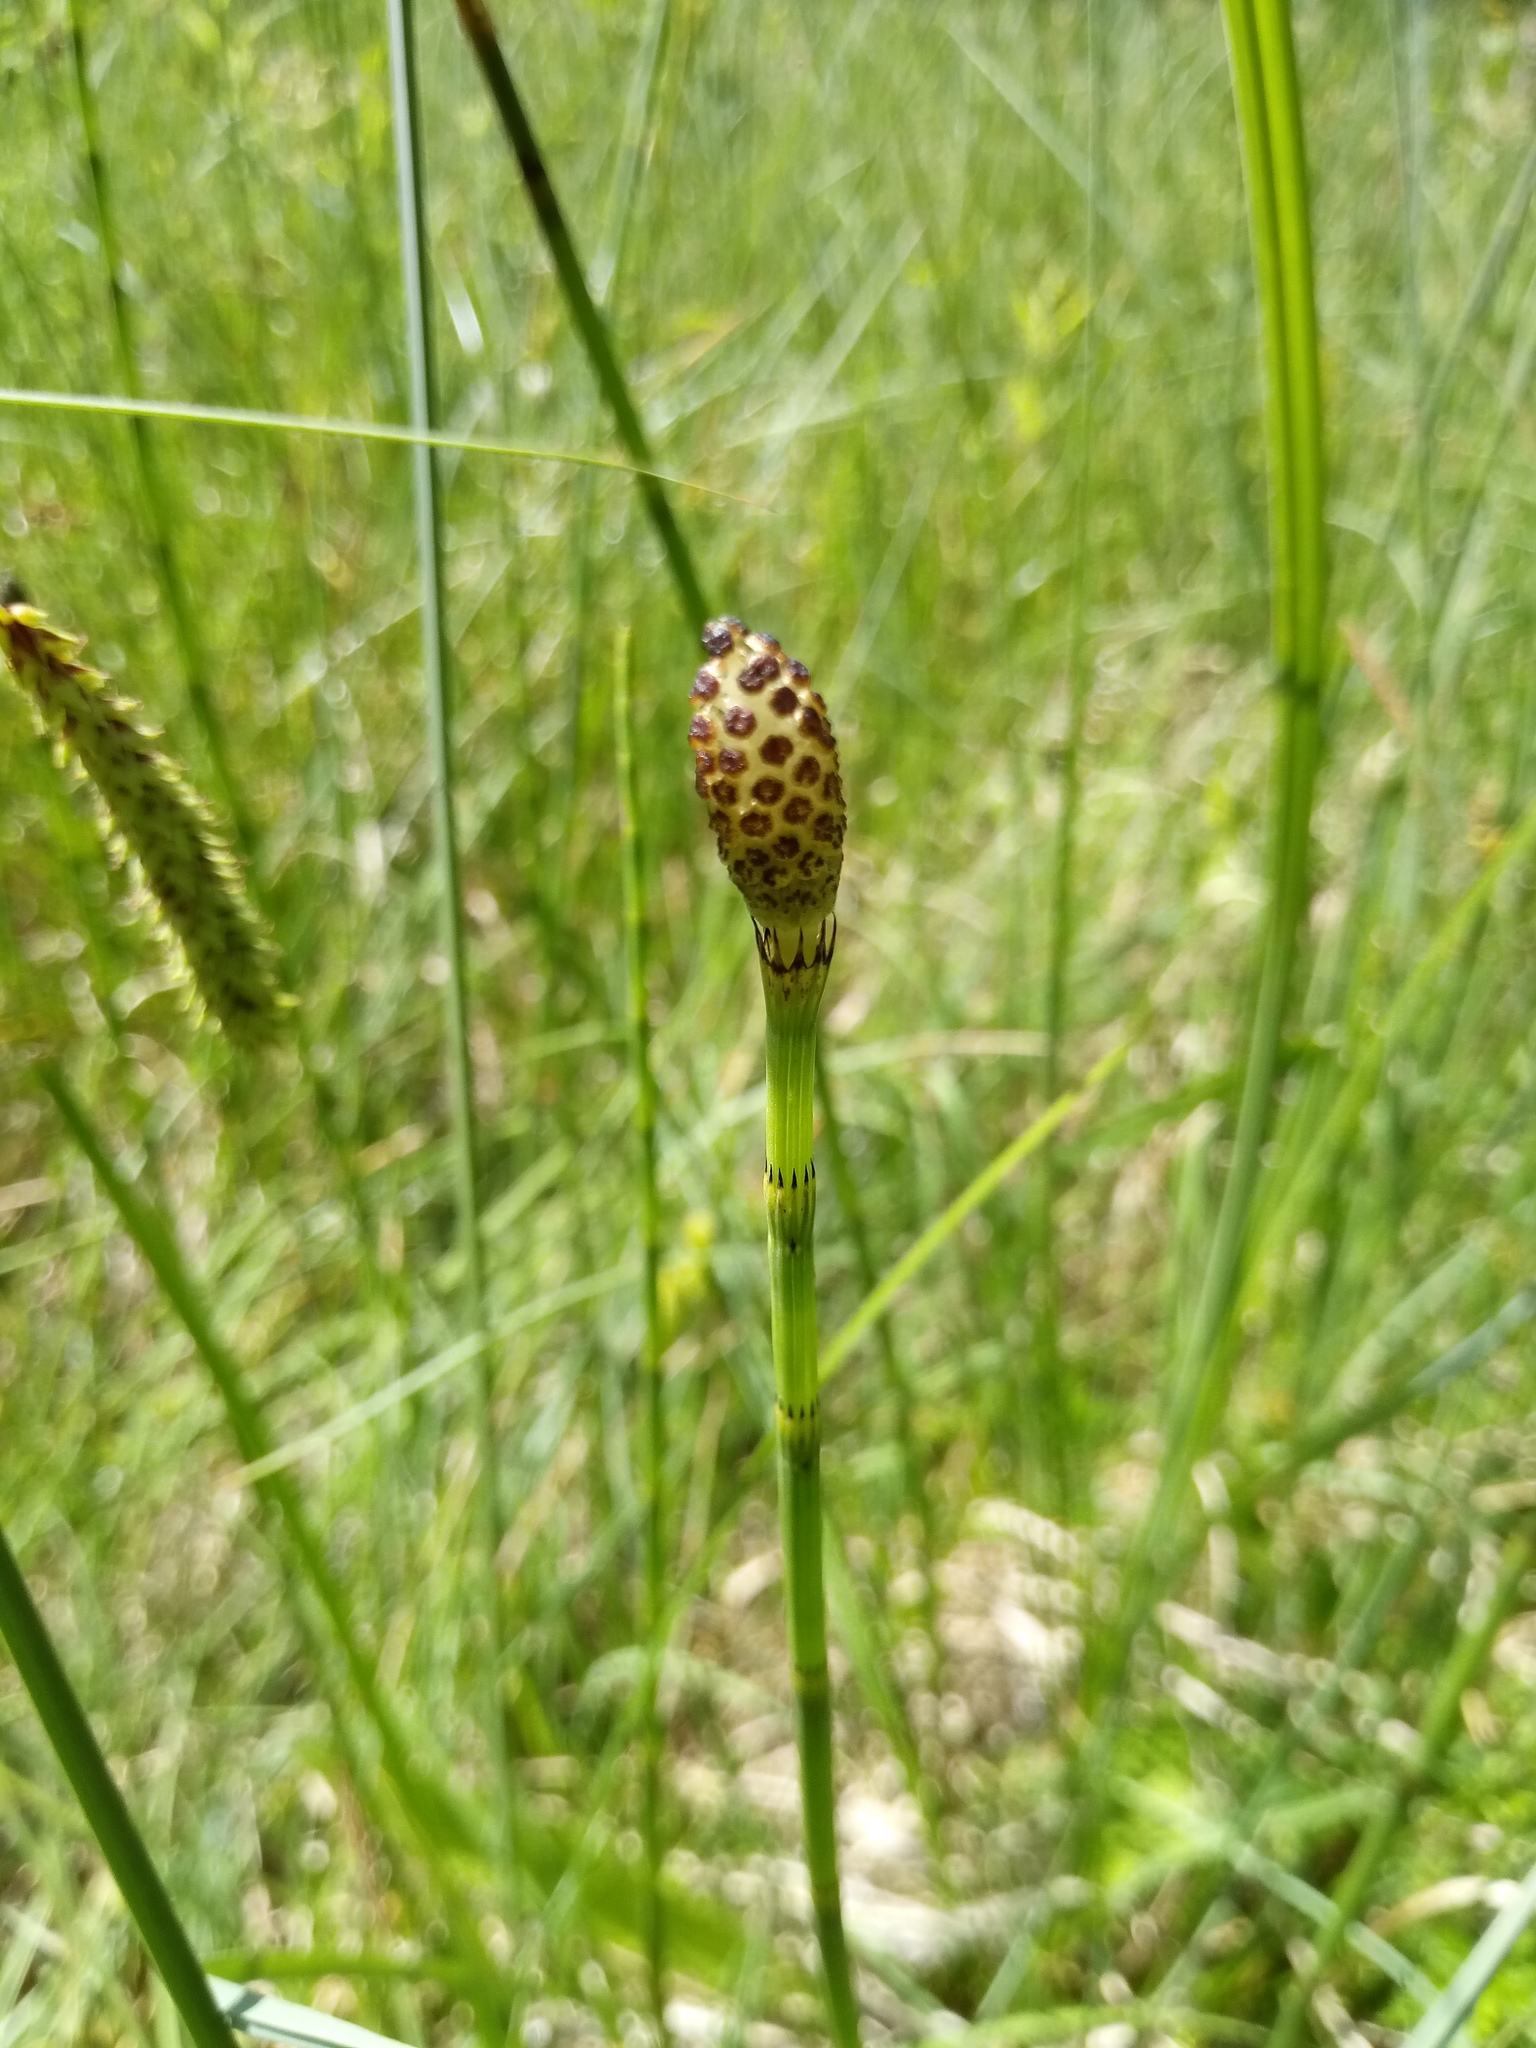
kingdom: Plantae
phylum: Tracheophyta
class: Polypodiopsida
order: Equisetales
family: Equisetaceae
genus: Equisetum
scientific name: Equisetum fluviatile
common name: Water horsetail
